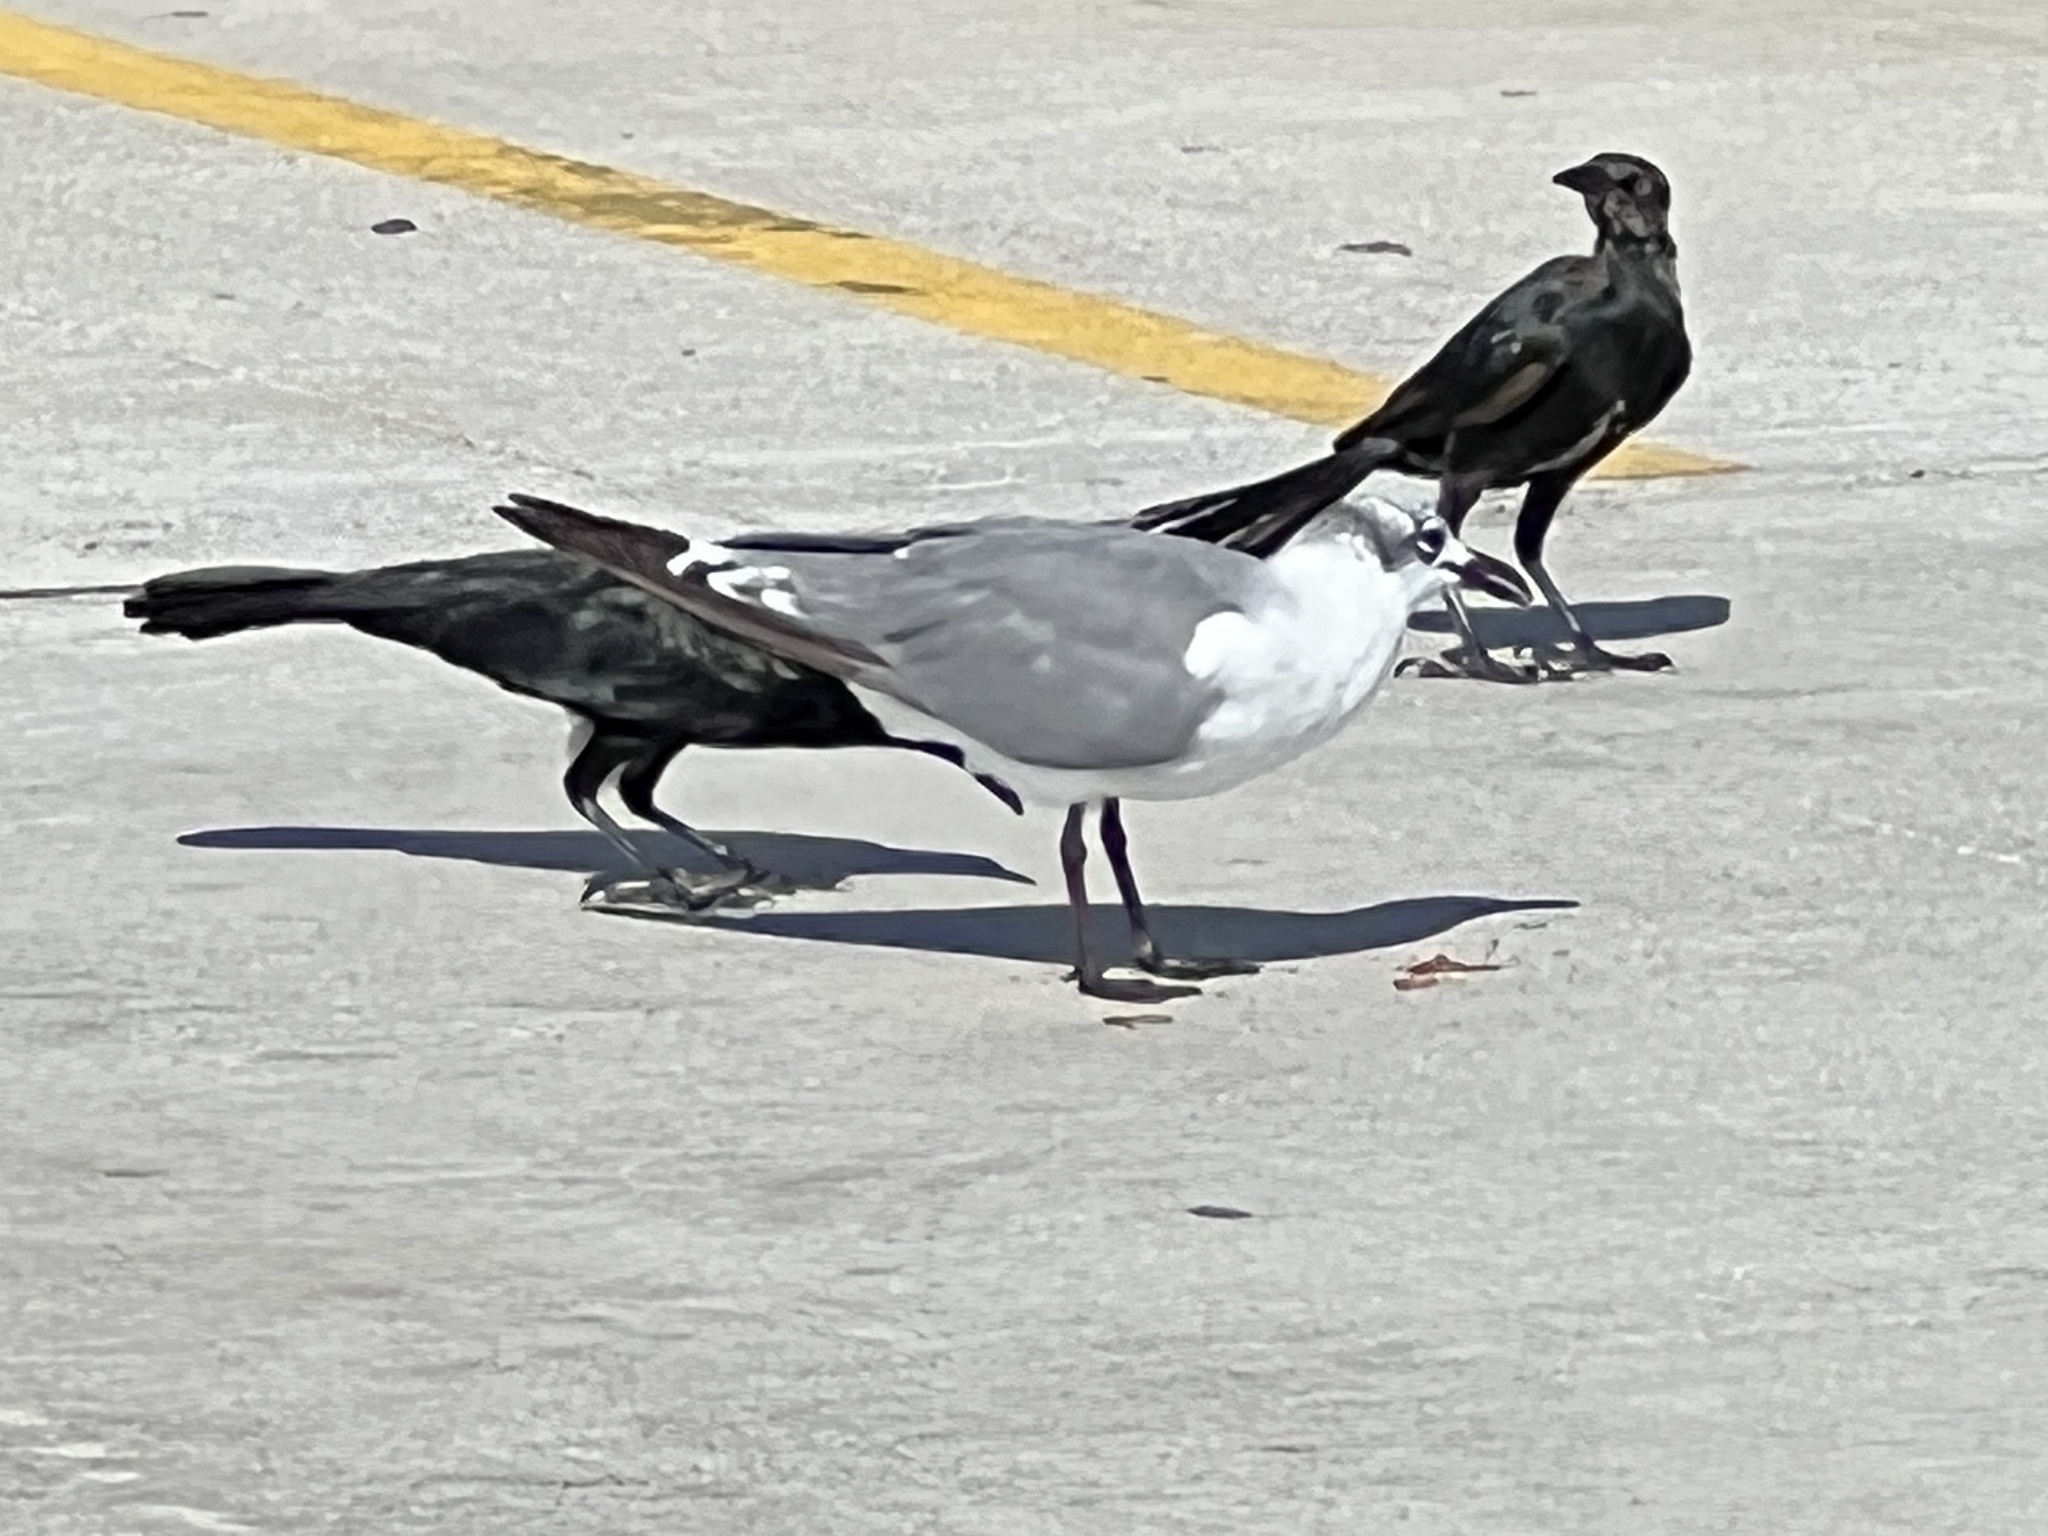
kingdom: Animalia
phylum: Chordata
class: Aves
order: Charadriiformes
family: Laridae
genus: Leucophaeus
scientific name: Leucophaeus atricilla
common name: Laughing gull
